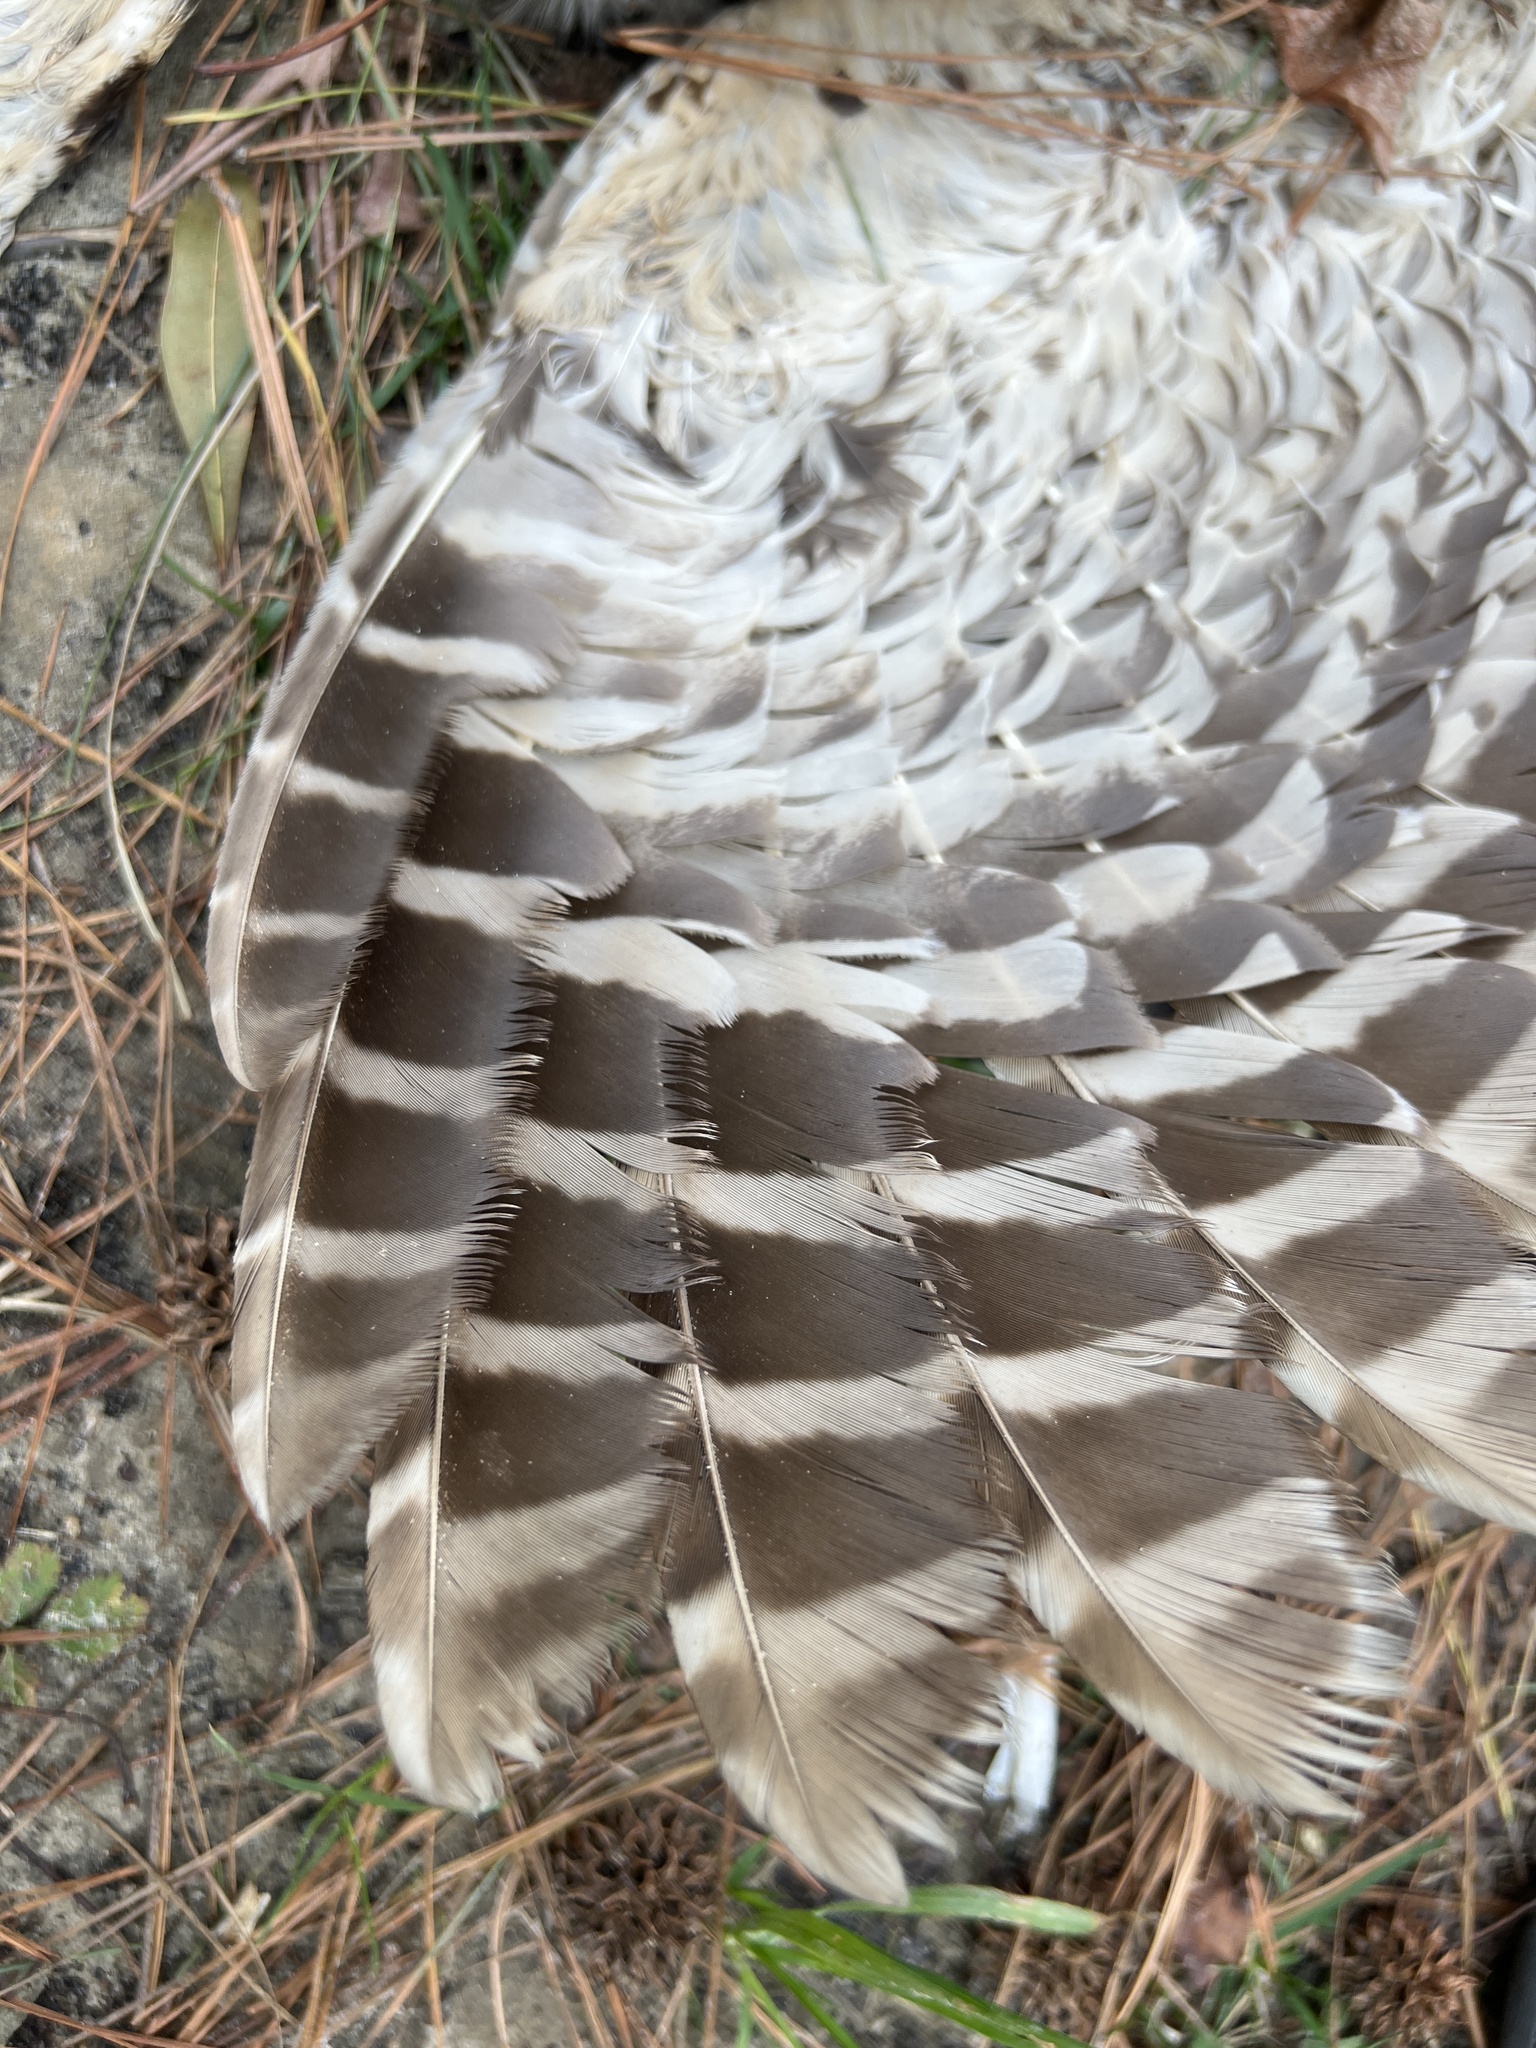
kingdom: Animalia
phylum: Chordata
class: Aves
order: Strigiformes
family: Strigidae
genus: Strix
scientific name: Strix varia
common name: Barred owl
